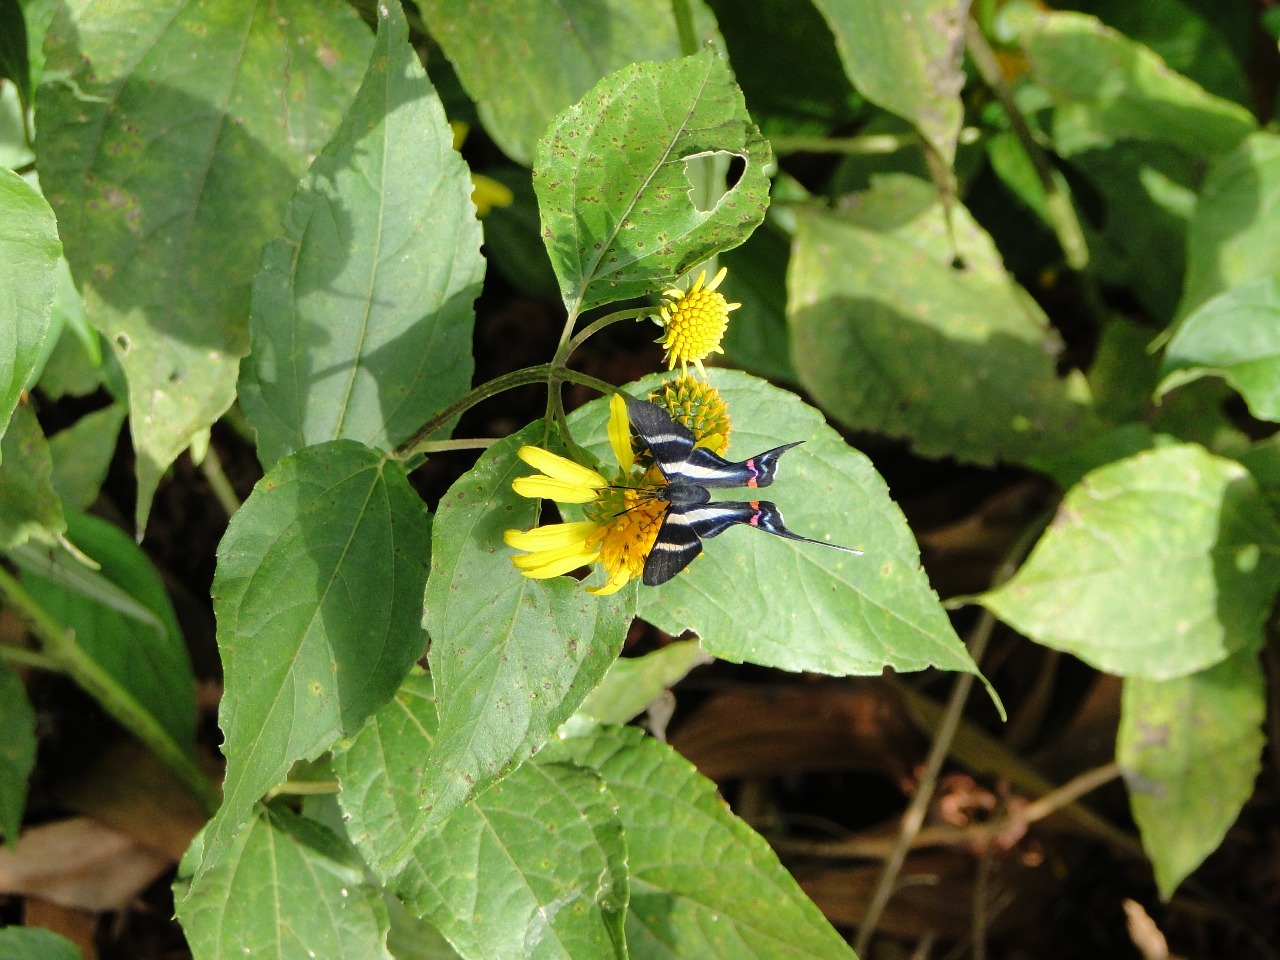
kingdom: Animalia
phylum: Arthropoda
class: Insecta
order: Lepidoptera
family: Riodinidae
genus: Rhetus
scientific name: Rhetus dysonii
